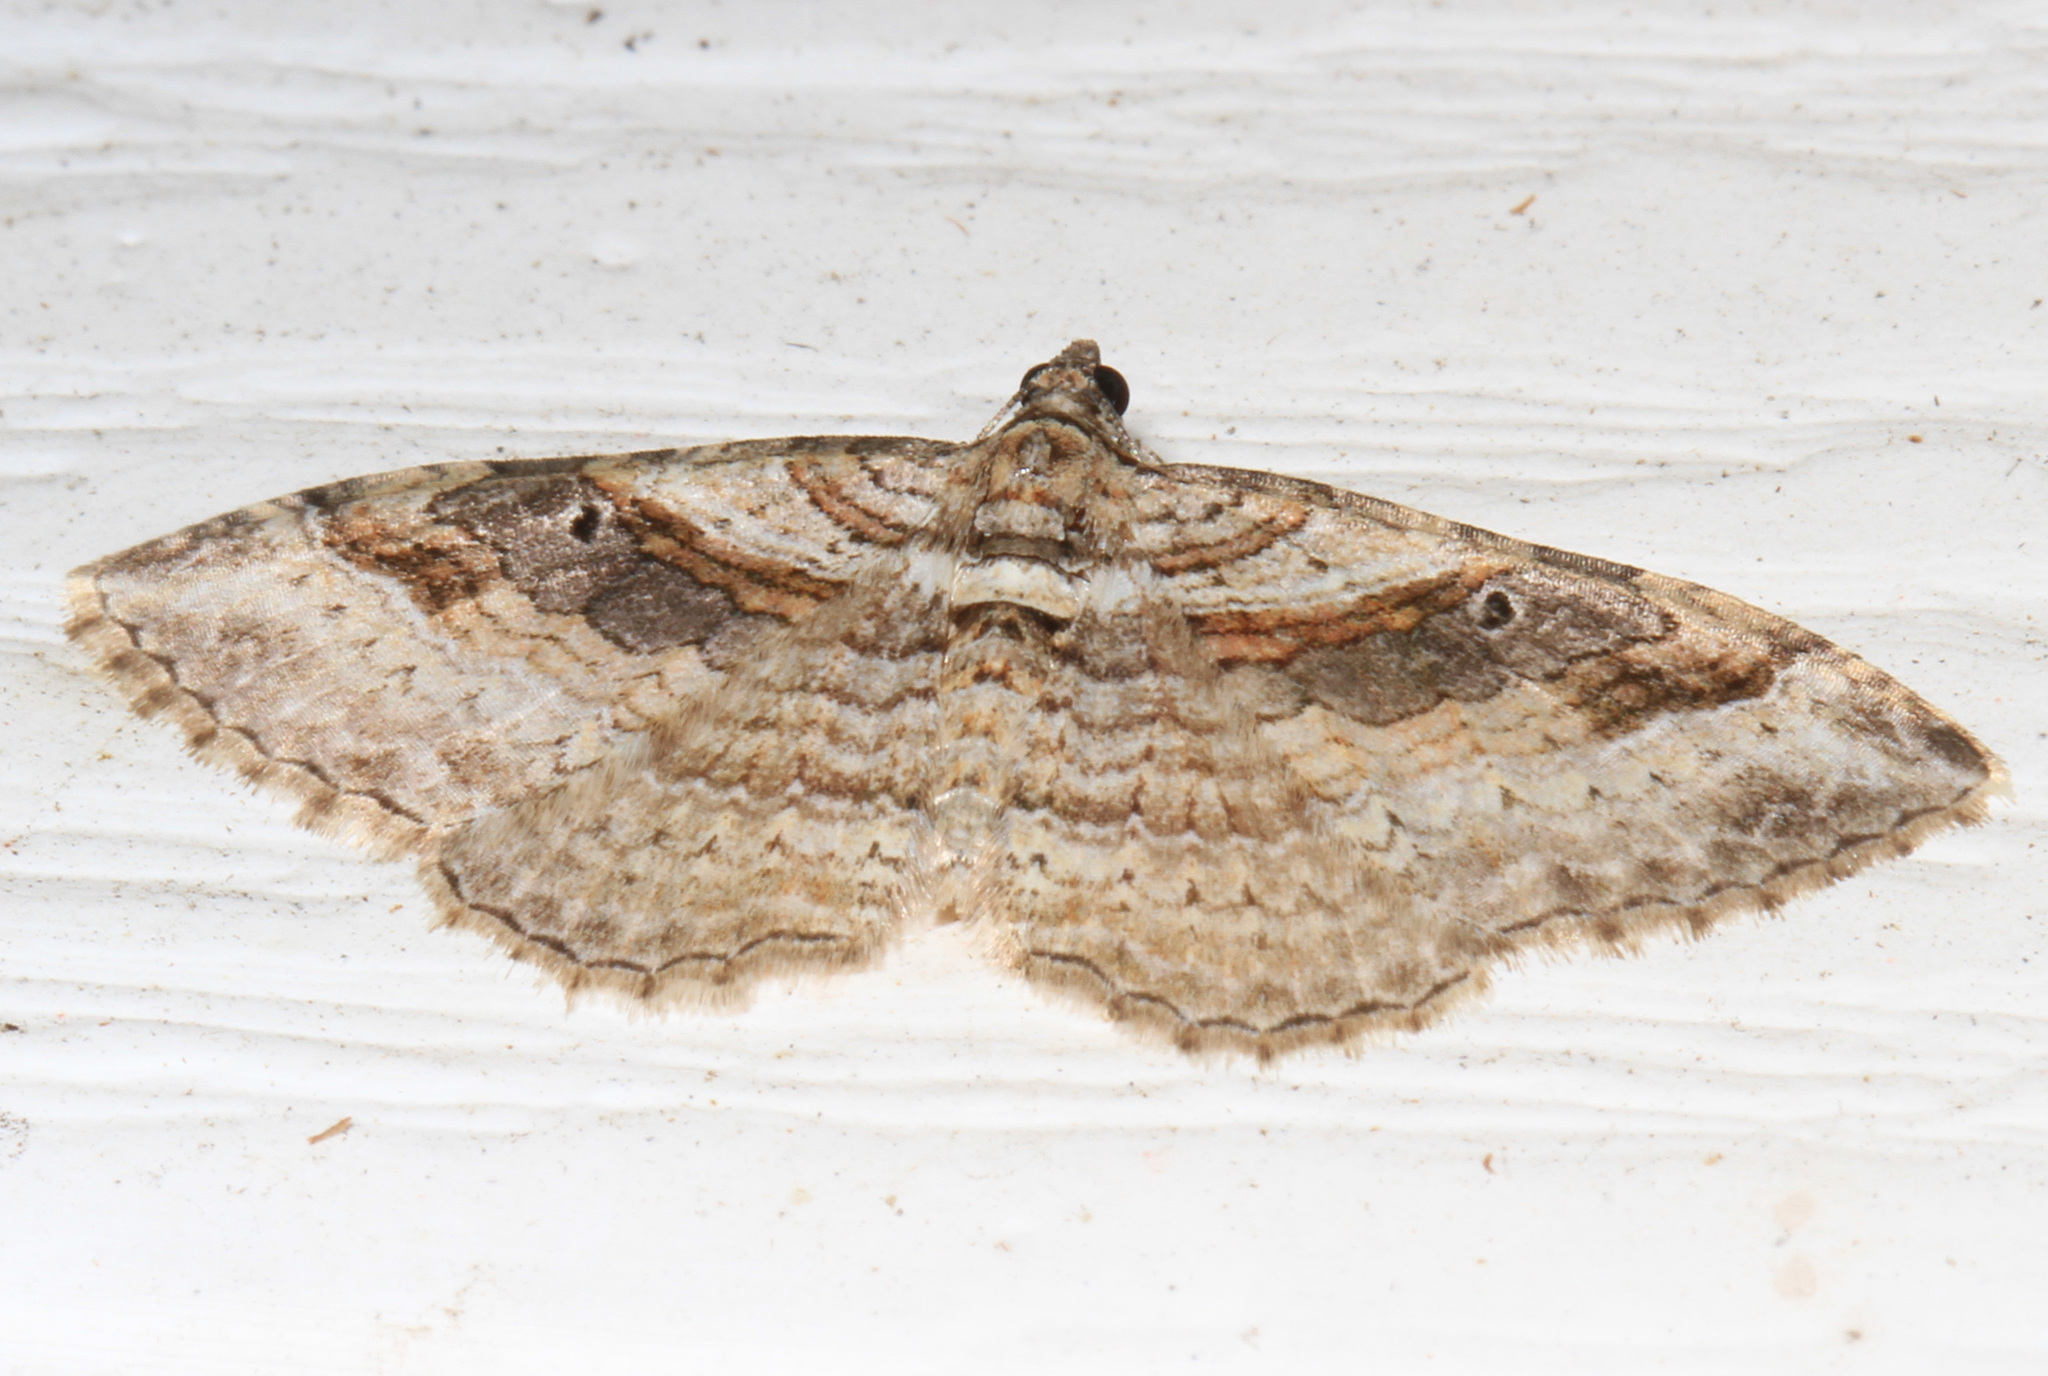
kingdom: Animalia
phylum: Arthropoda
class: Insecta
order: Lepidoptera
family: Geometridae
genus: Costaconvexa
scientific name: Costaconvexa centrostrigaria
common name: Bent-line carpet
